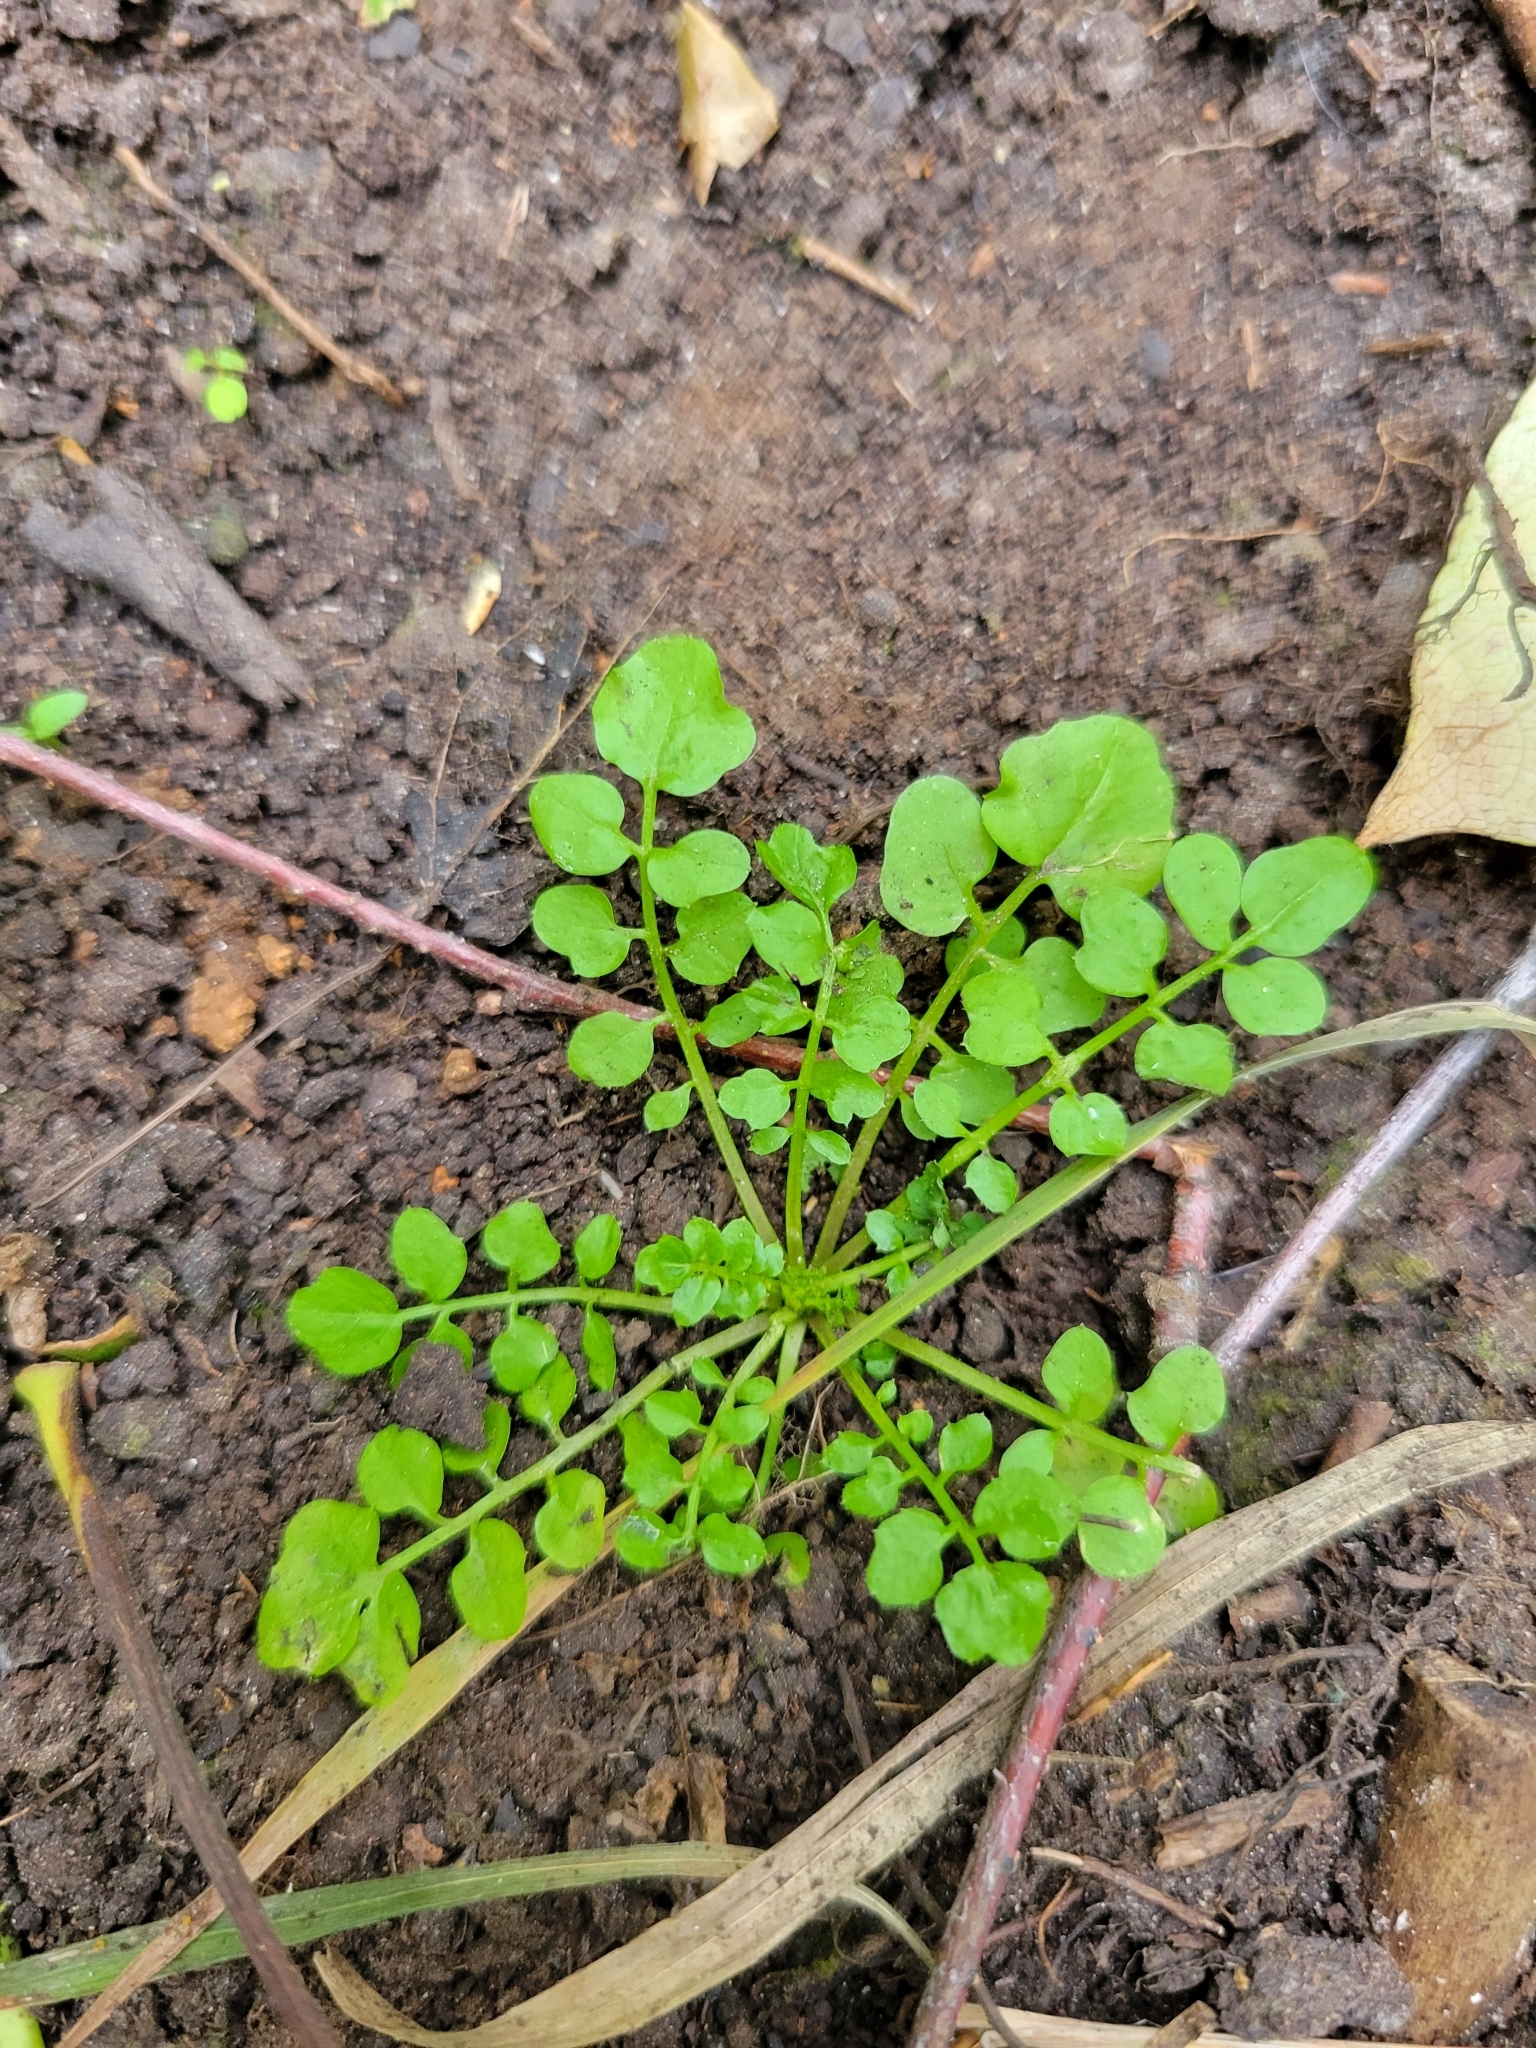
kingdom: Plantae
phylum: Tracheophyta
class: Magnoliopsida
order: Brassicales
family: Brassicaceae
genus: Cardamine
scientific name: Cardamine pensylvanica
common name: Pennsylvania bittercress
